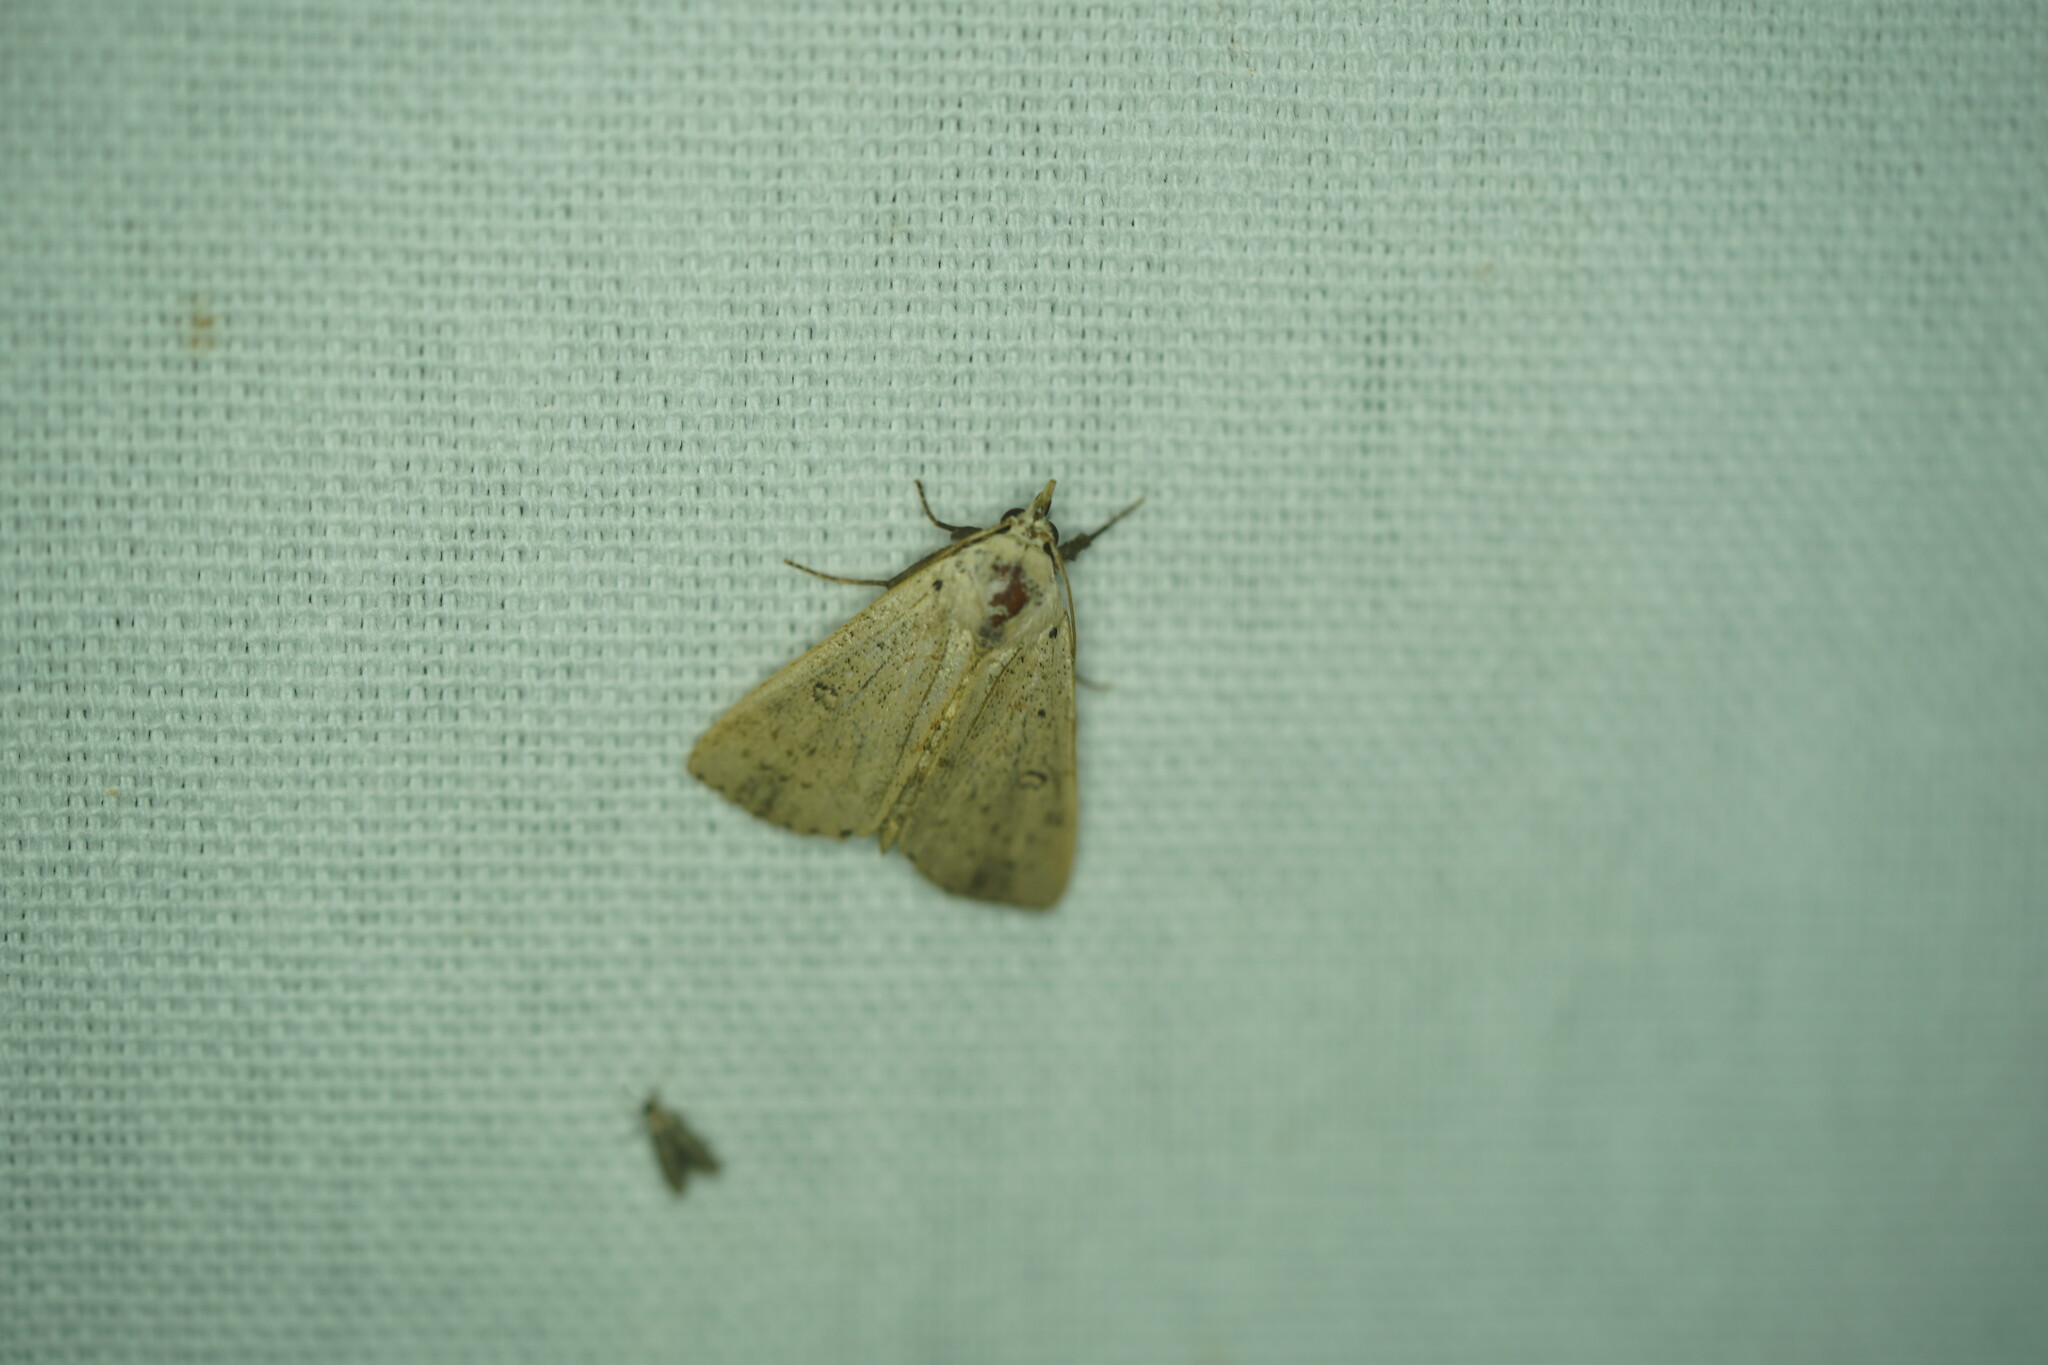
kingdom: Animalia
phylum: Arthropoda
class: Insecta
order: Lepidoptera
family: Erebidae
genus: Scolecocampa
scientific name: Scolecocampa liburna
